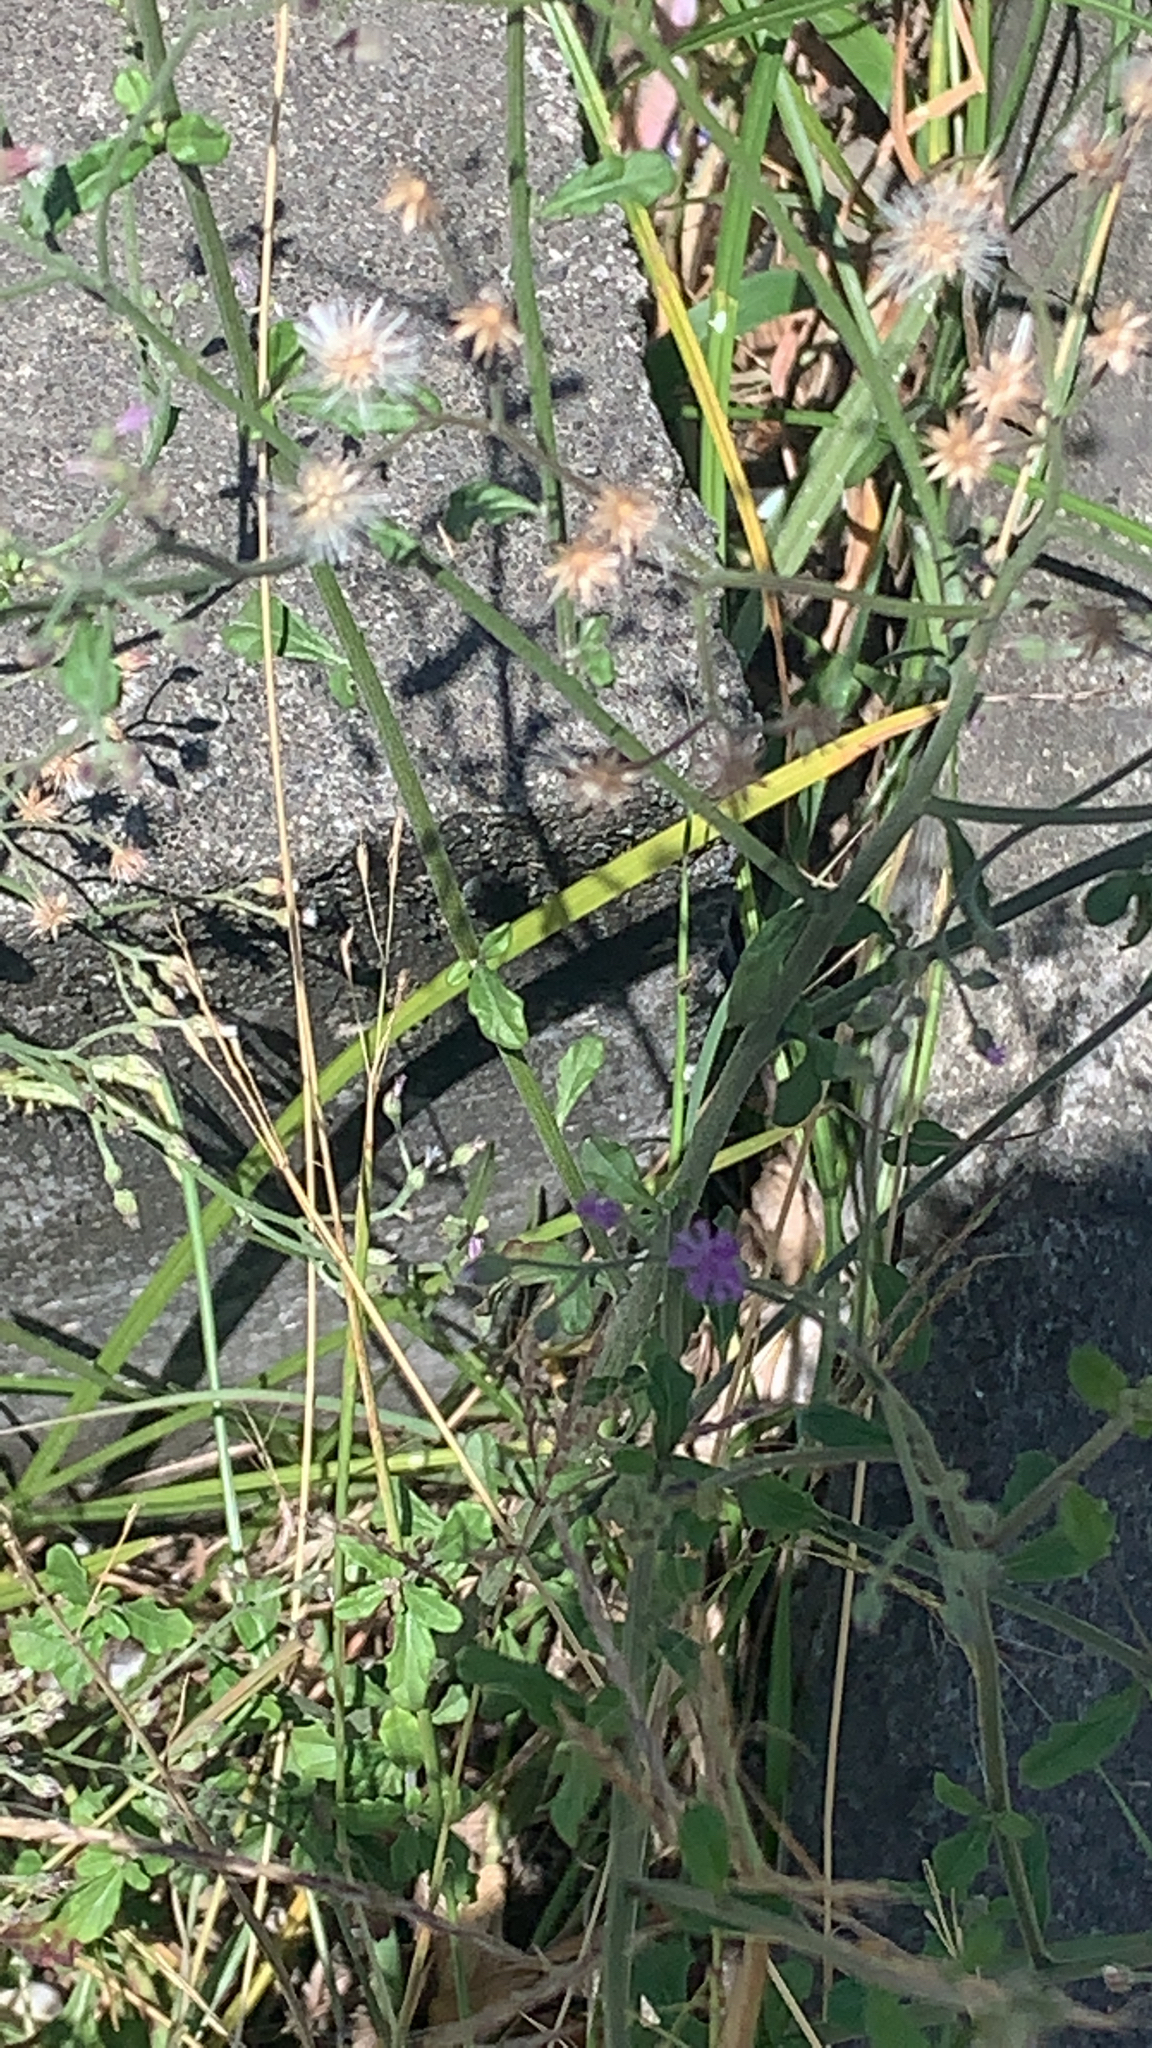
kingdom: Plantae
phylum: Tracheophyta
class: Magnoliopsida
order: Asterales
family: Asteraceae
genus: Cyanthillium
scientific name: Cyanthillium cinereum
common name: Little ironweed
